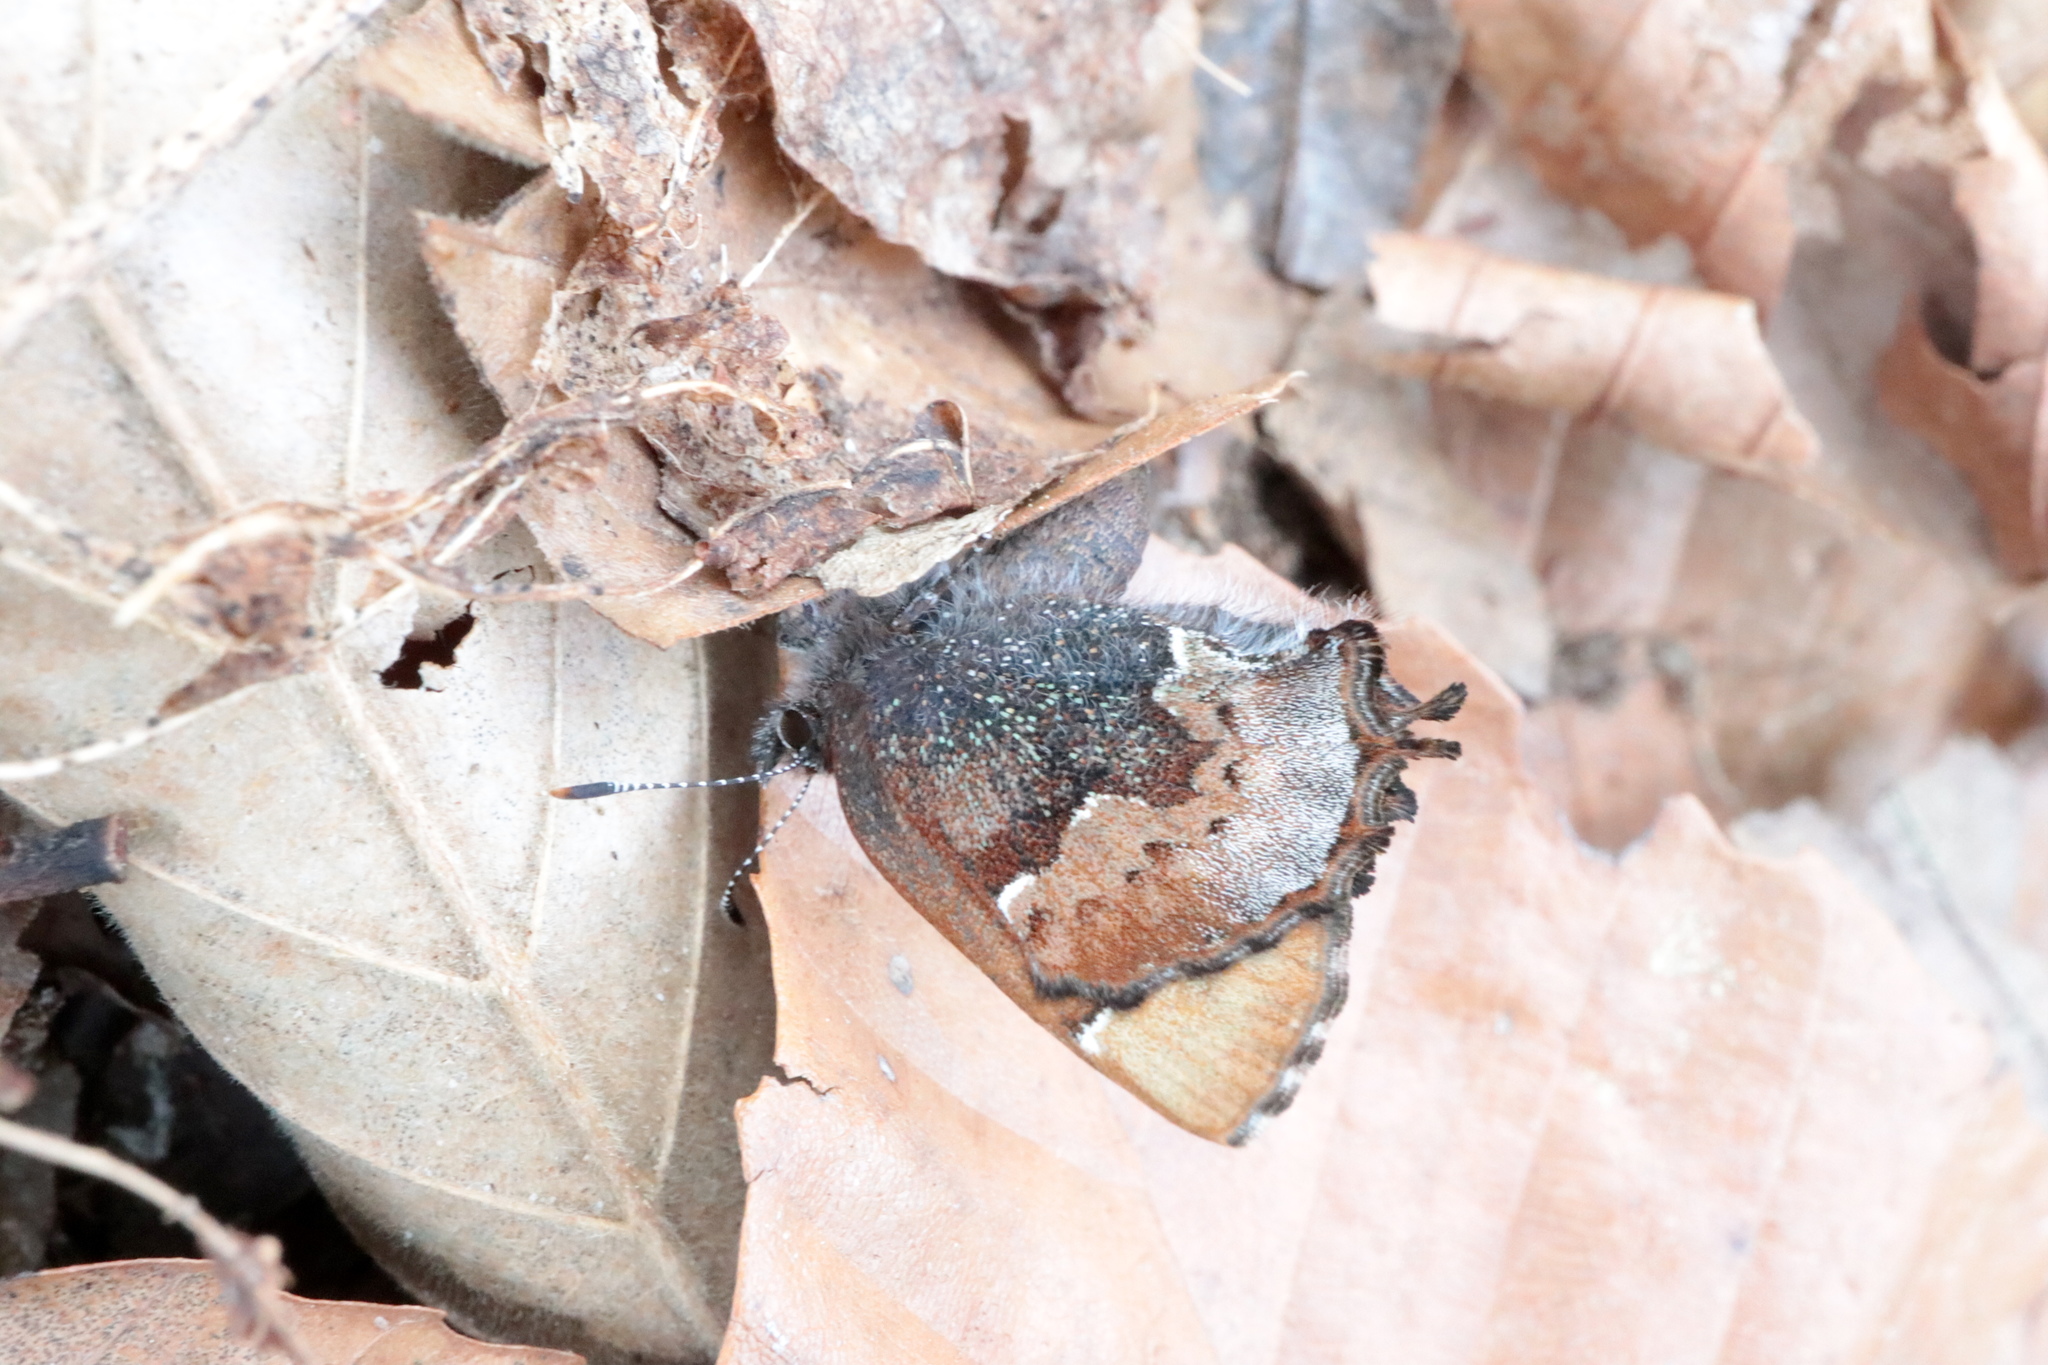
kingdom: Animalia
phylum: Arthropoda
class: Insecta
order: Lepidoptera
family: Lycaenidae
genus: Incisalia
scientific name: Incisalia henrici
